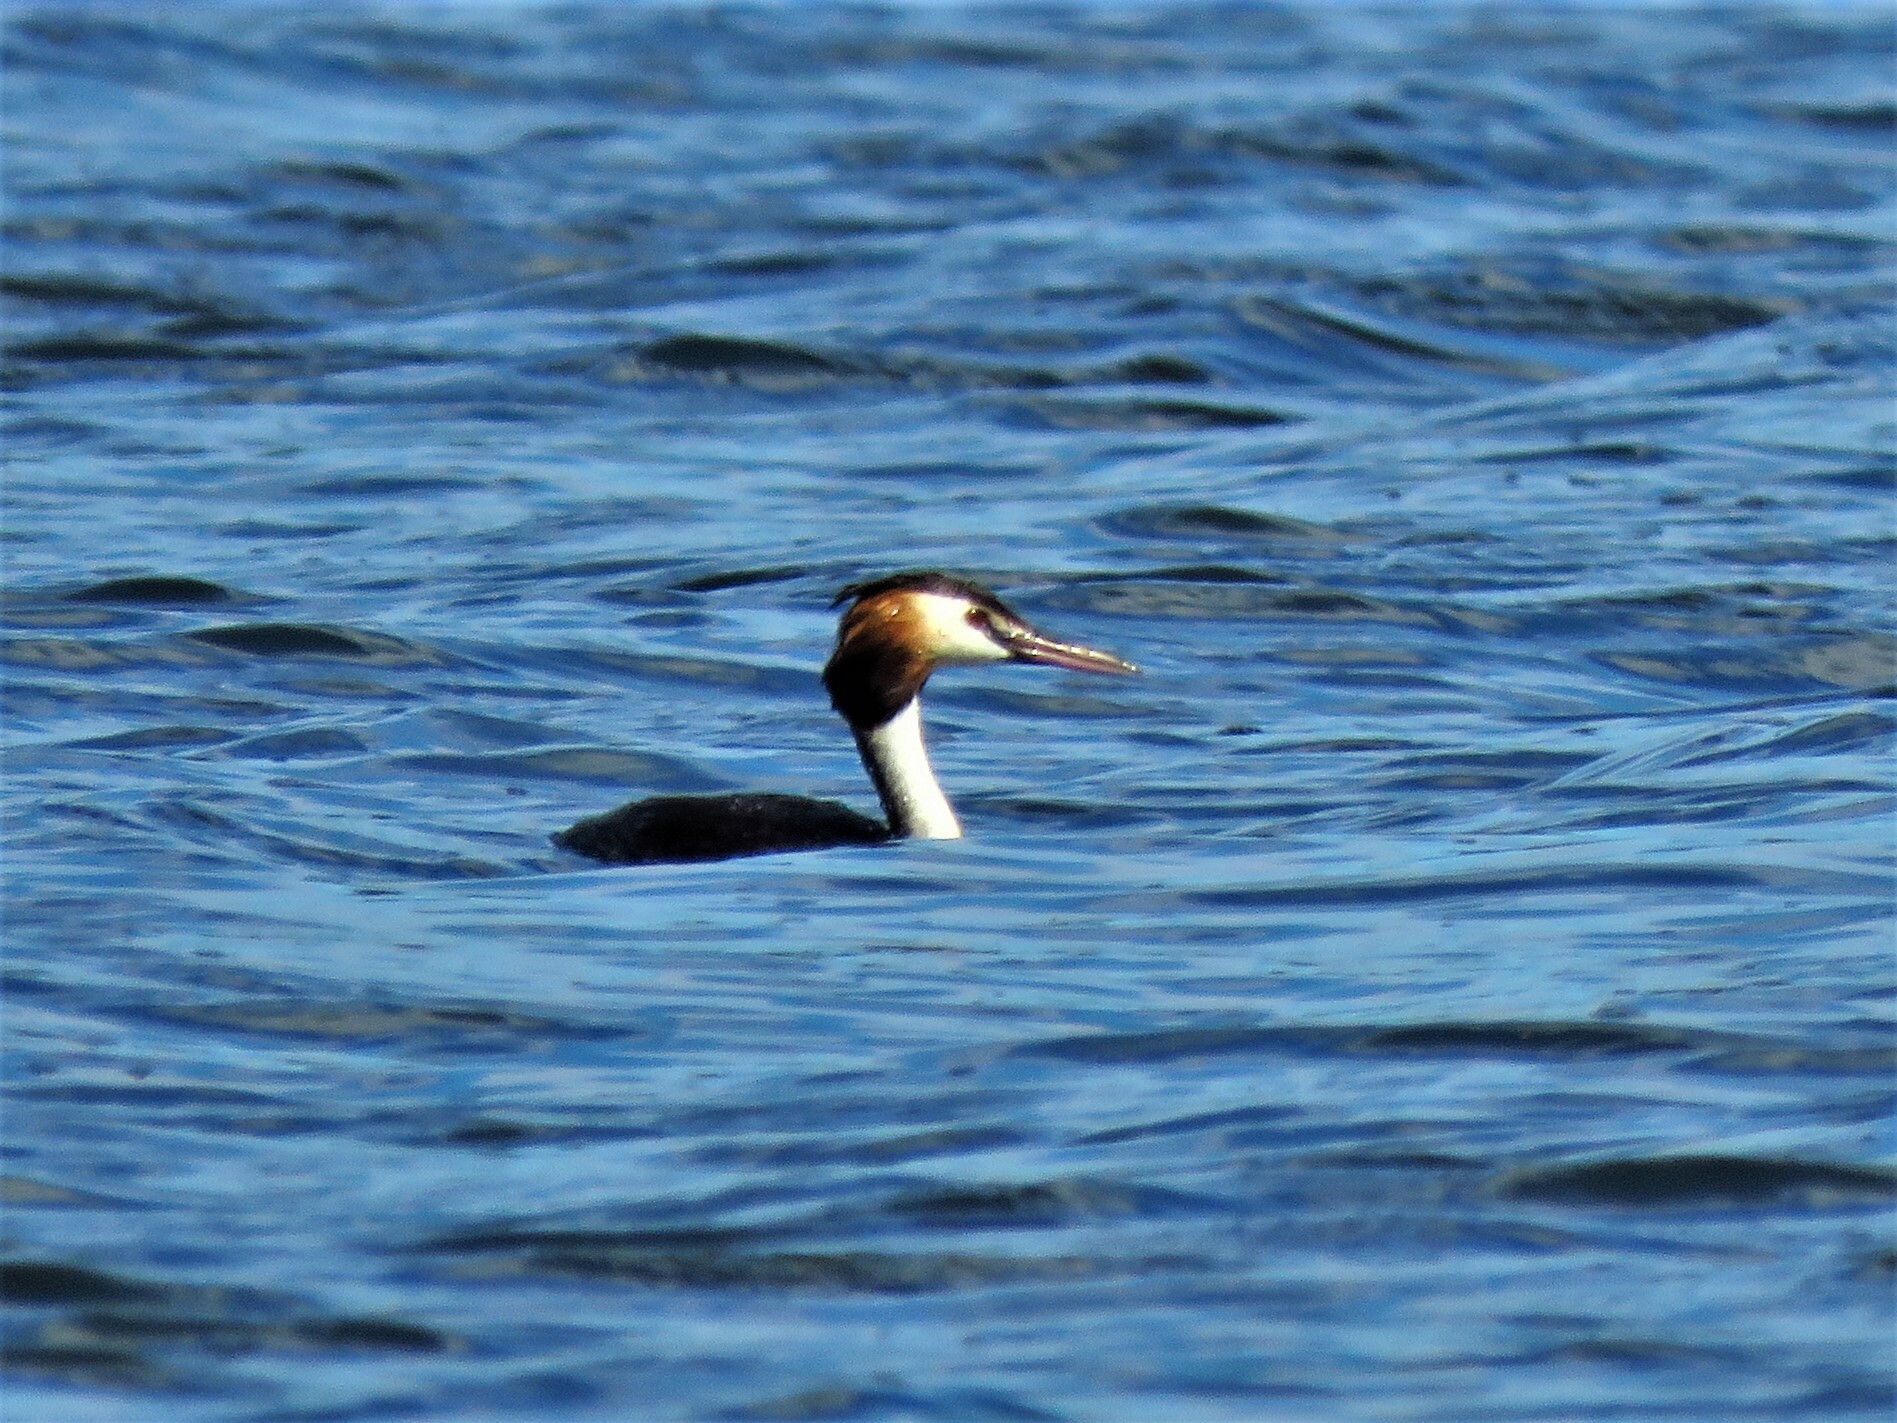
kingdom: Animalia
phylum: Chordata
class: Aves
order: Podicipediformes
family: Podicipedidae
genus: Podiceps
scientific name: Podiceps cristatus
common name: Great crested grebe
